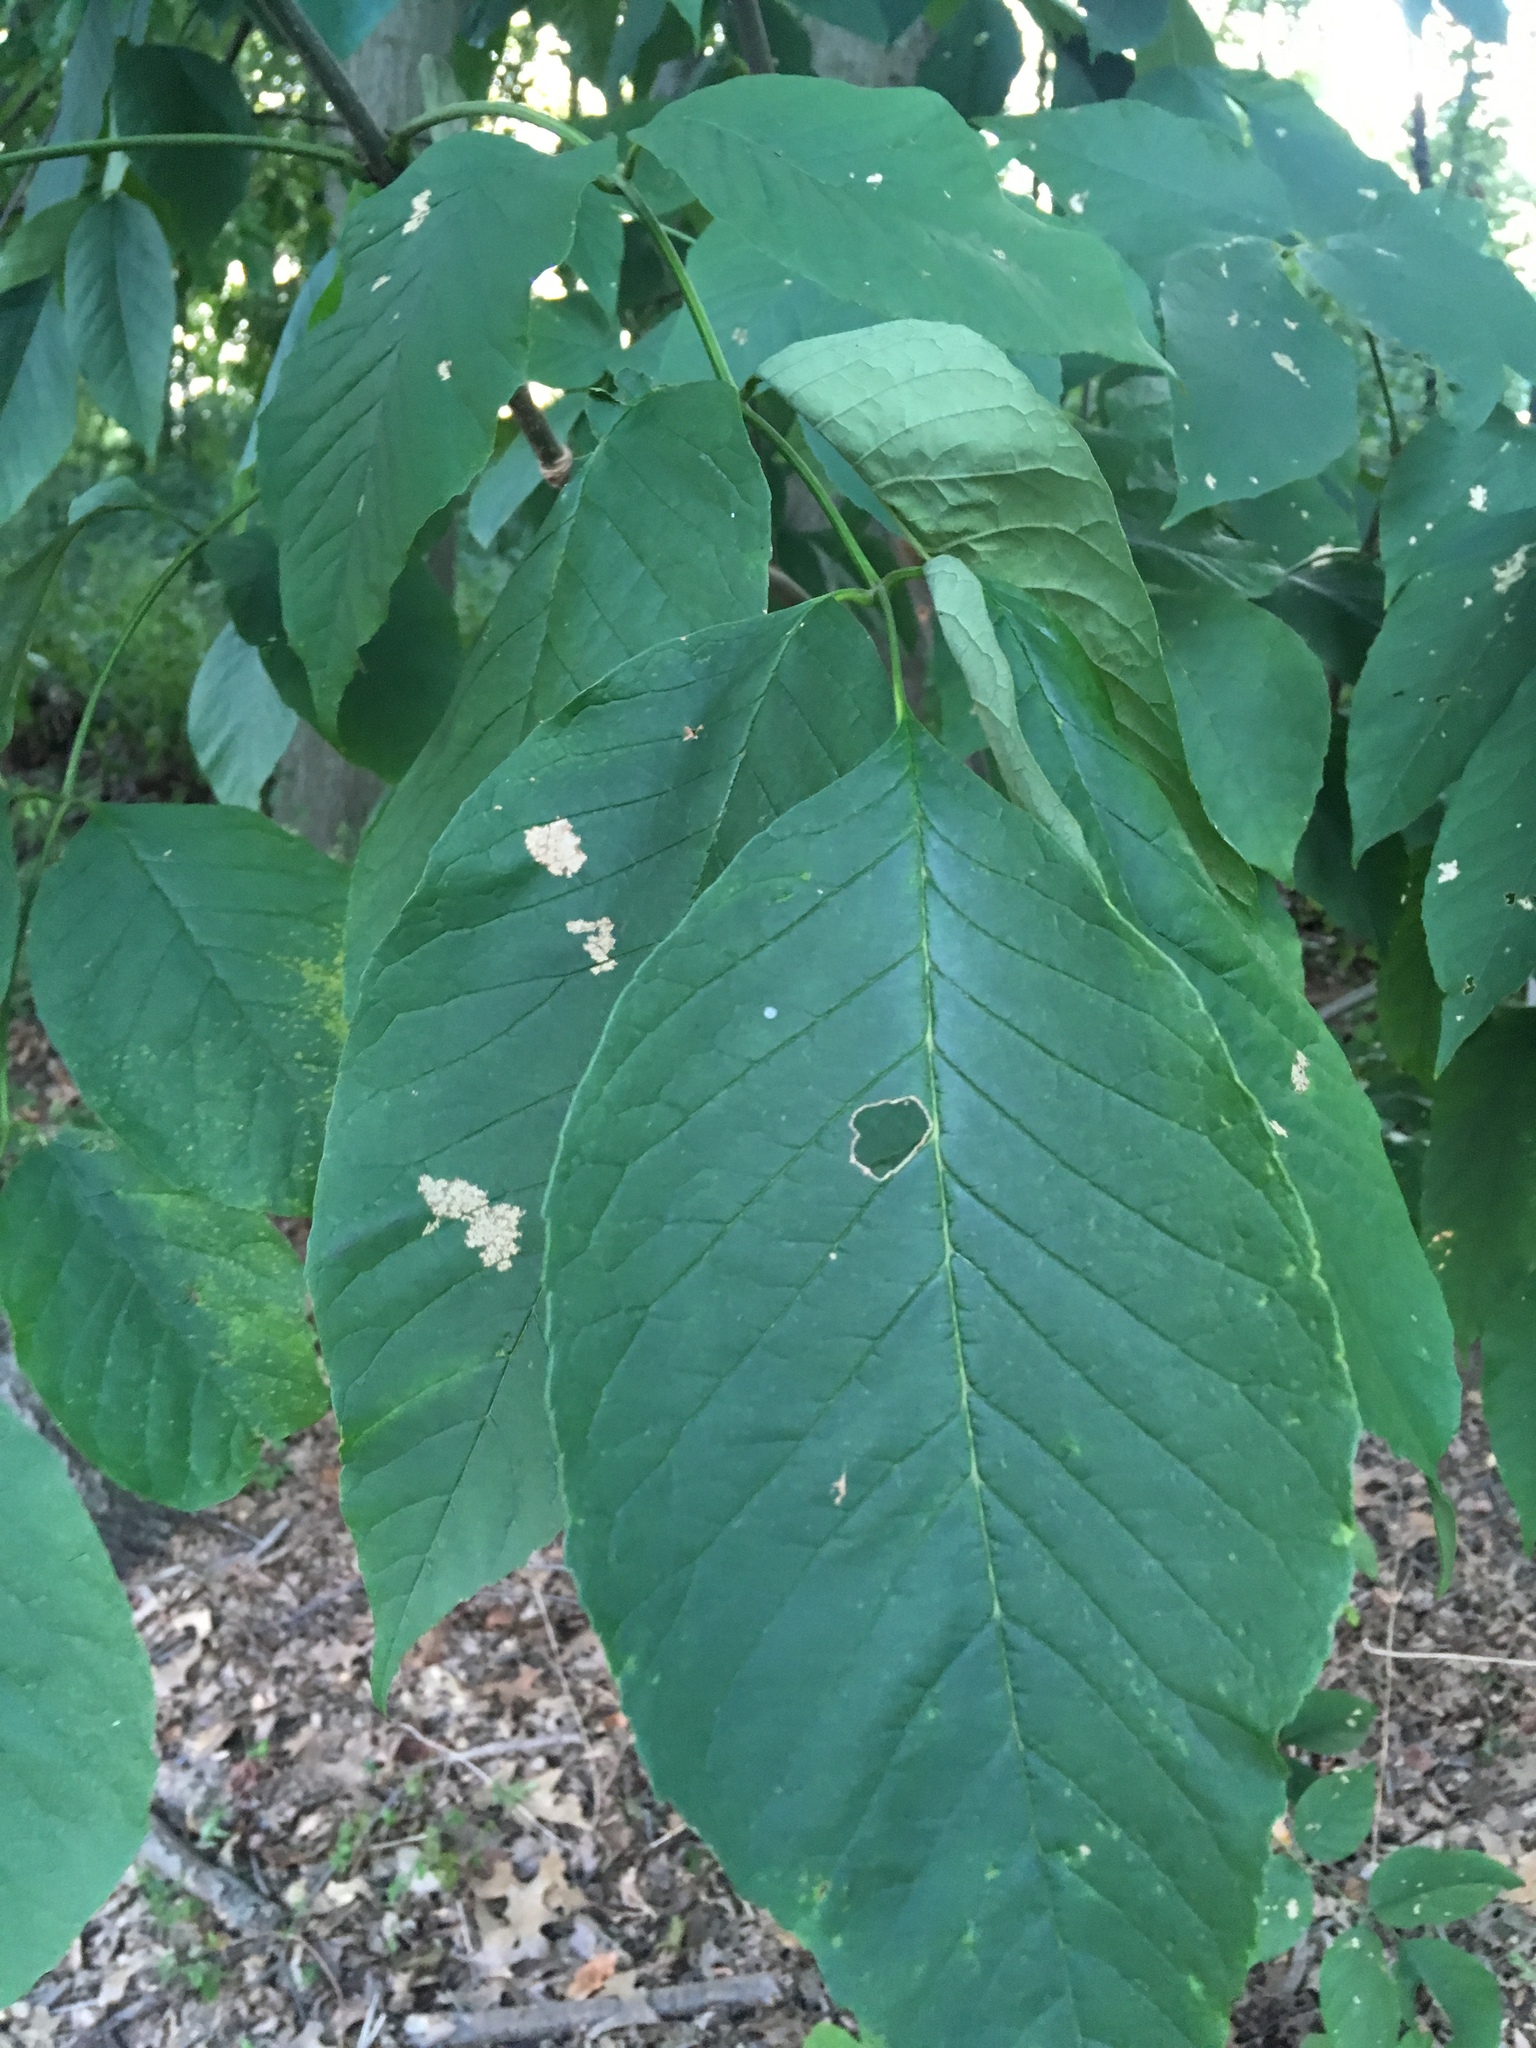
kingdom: Plantae
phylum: Tracheophyta
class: Magnoliopsida
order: Lamiales
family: Oleaceae
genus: Fraxinus
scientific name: Fraxinus americana
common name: White ash
